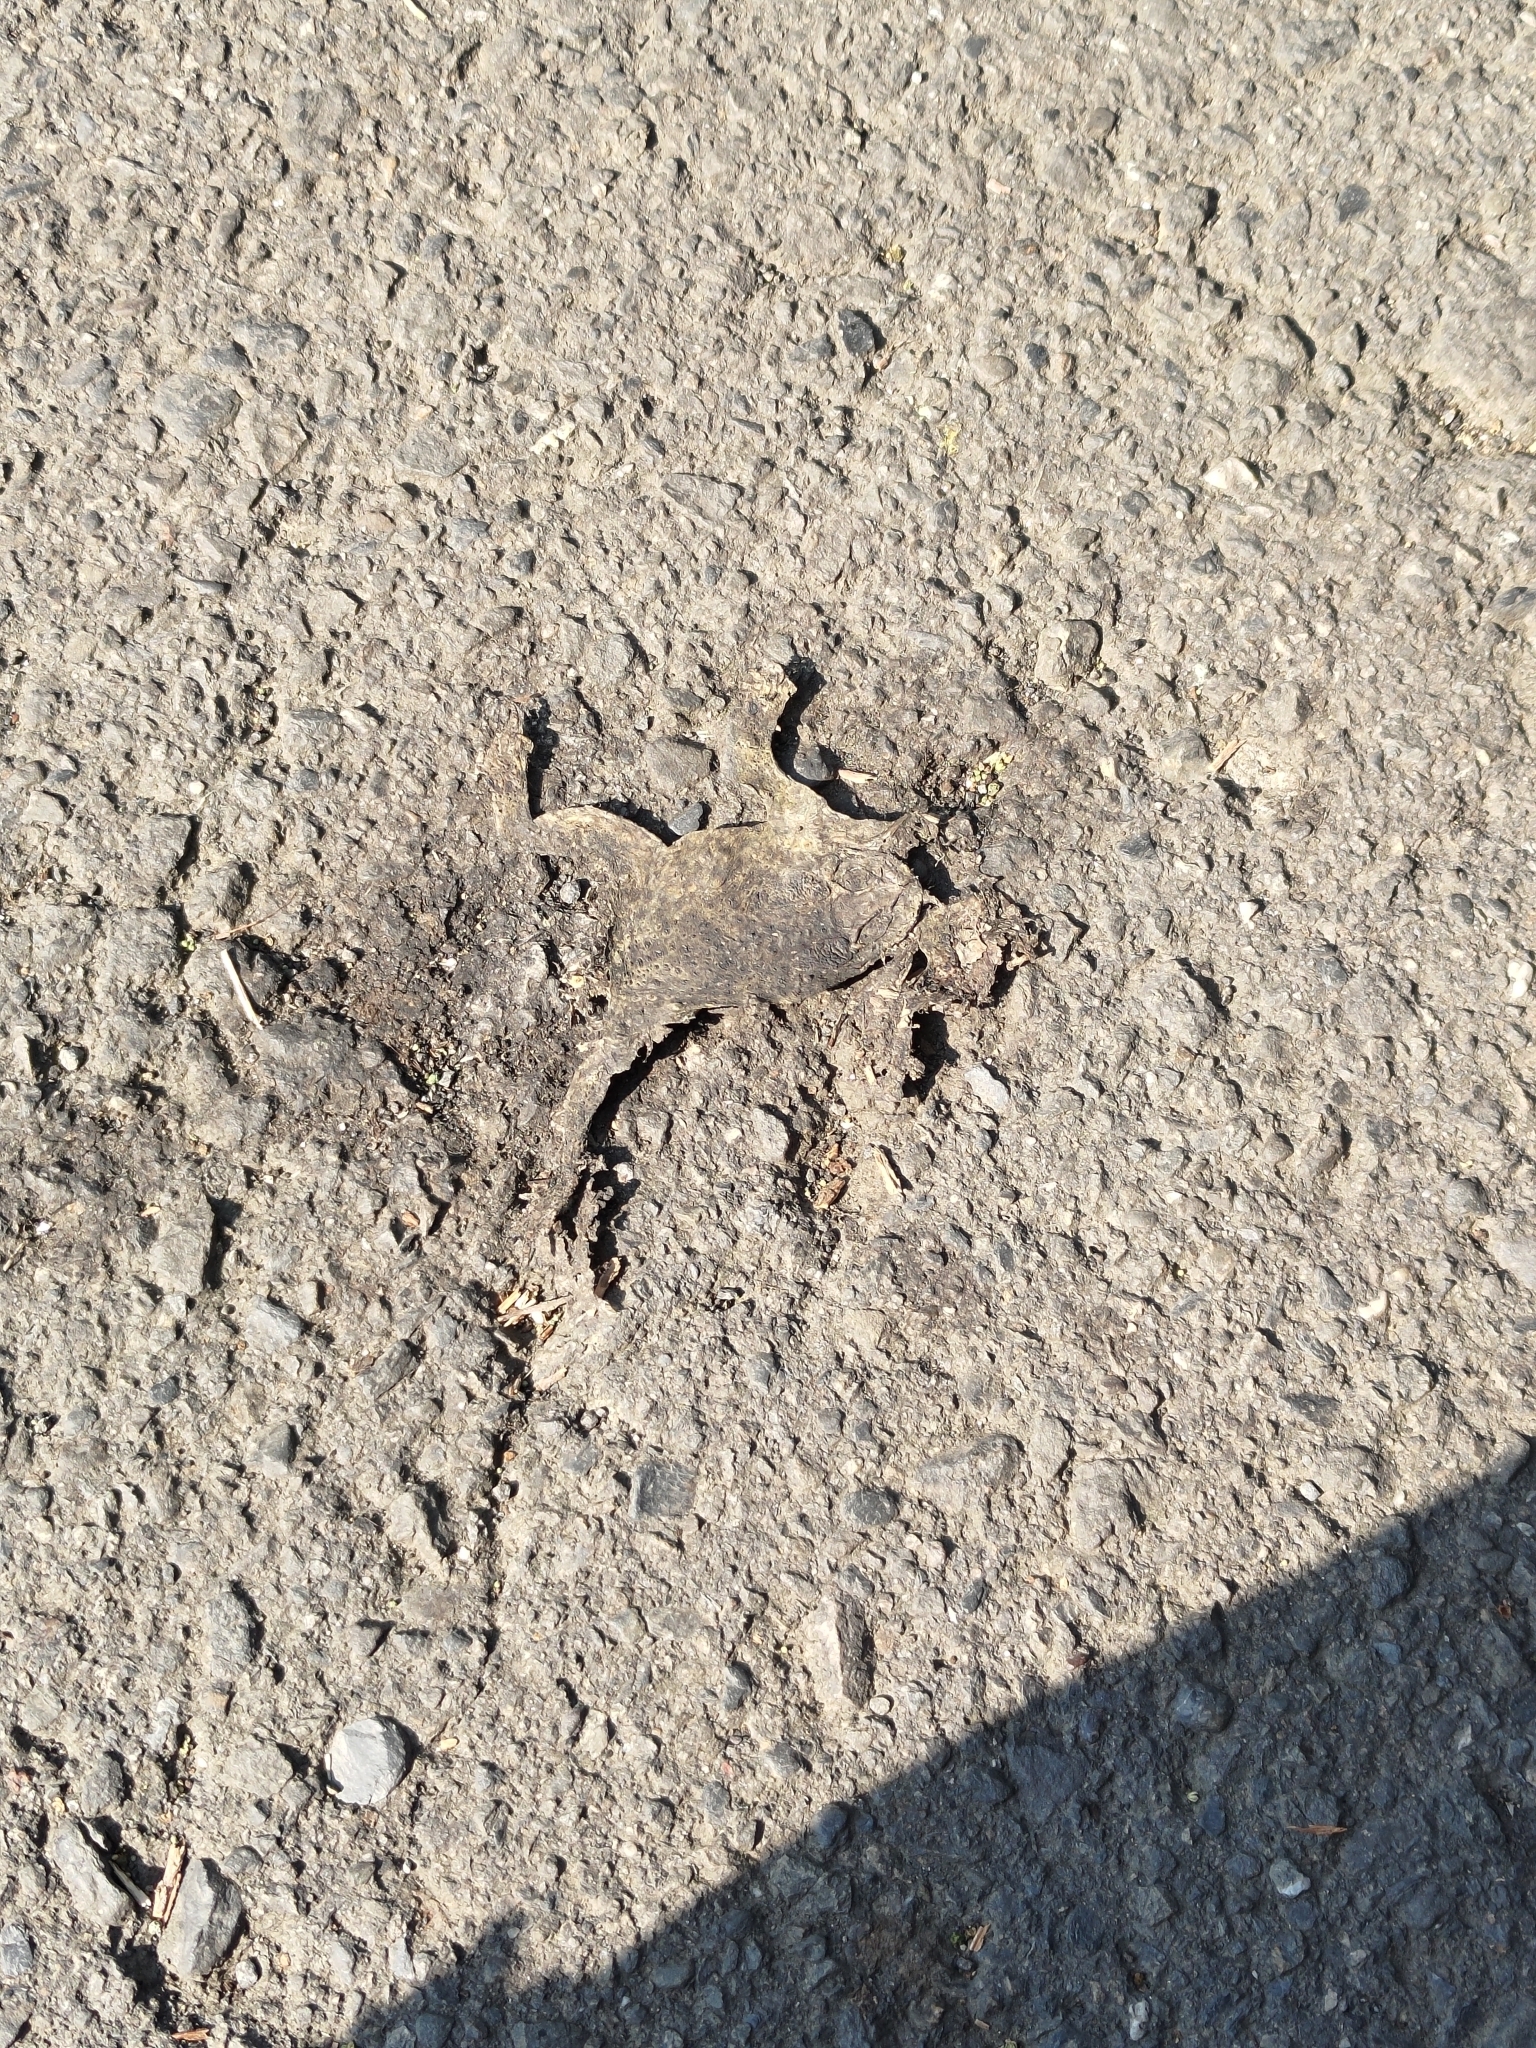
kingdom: Animalia
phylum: Chordata
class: Amphibia
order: Anura
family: Bufonidae
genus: Duttaphrynus
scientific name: Duttaphrynus melanostictus
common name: Common sunda toad
